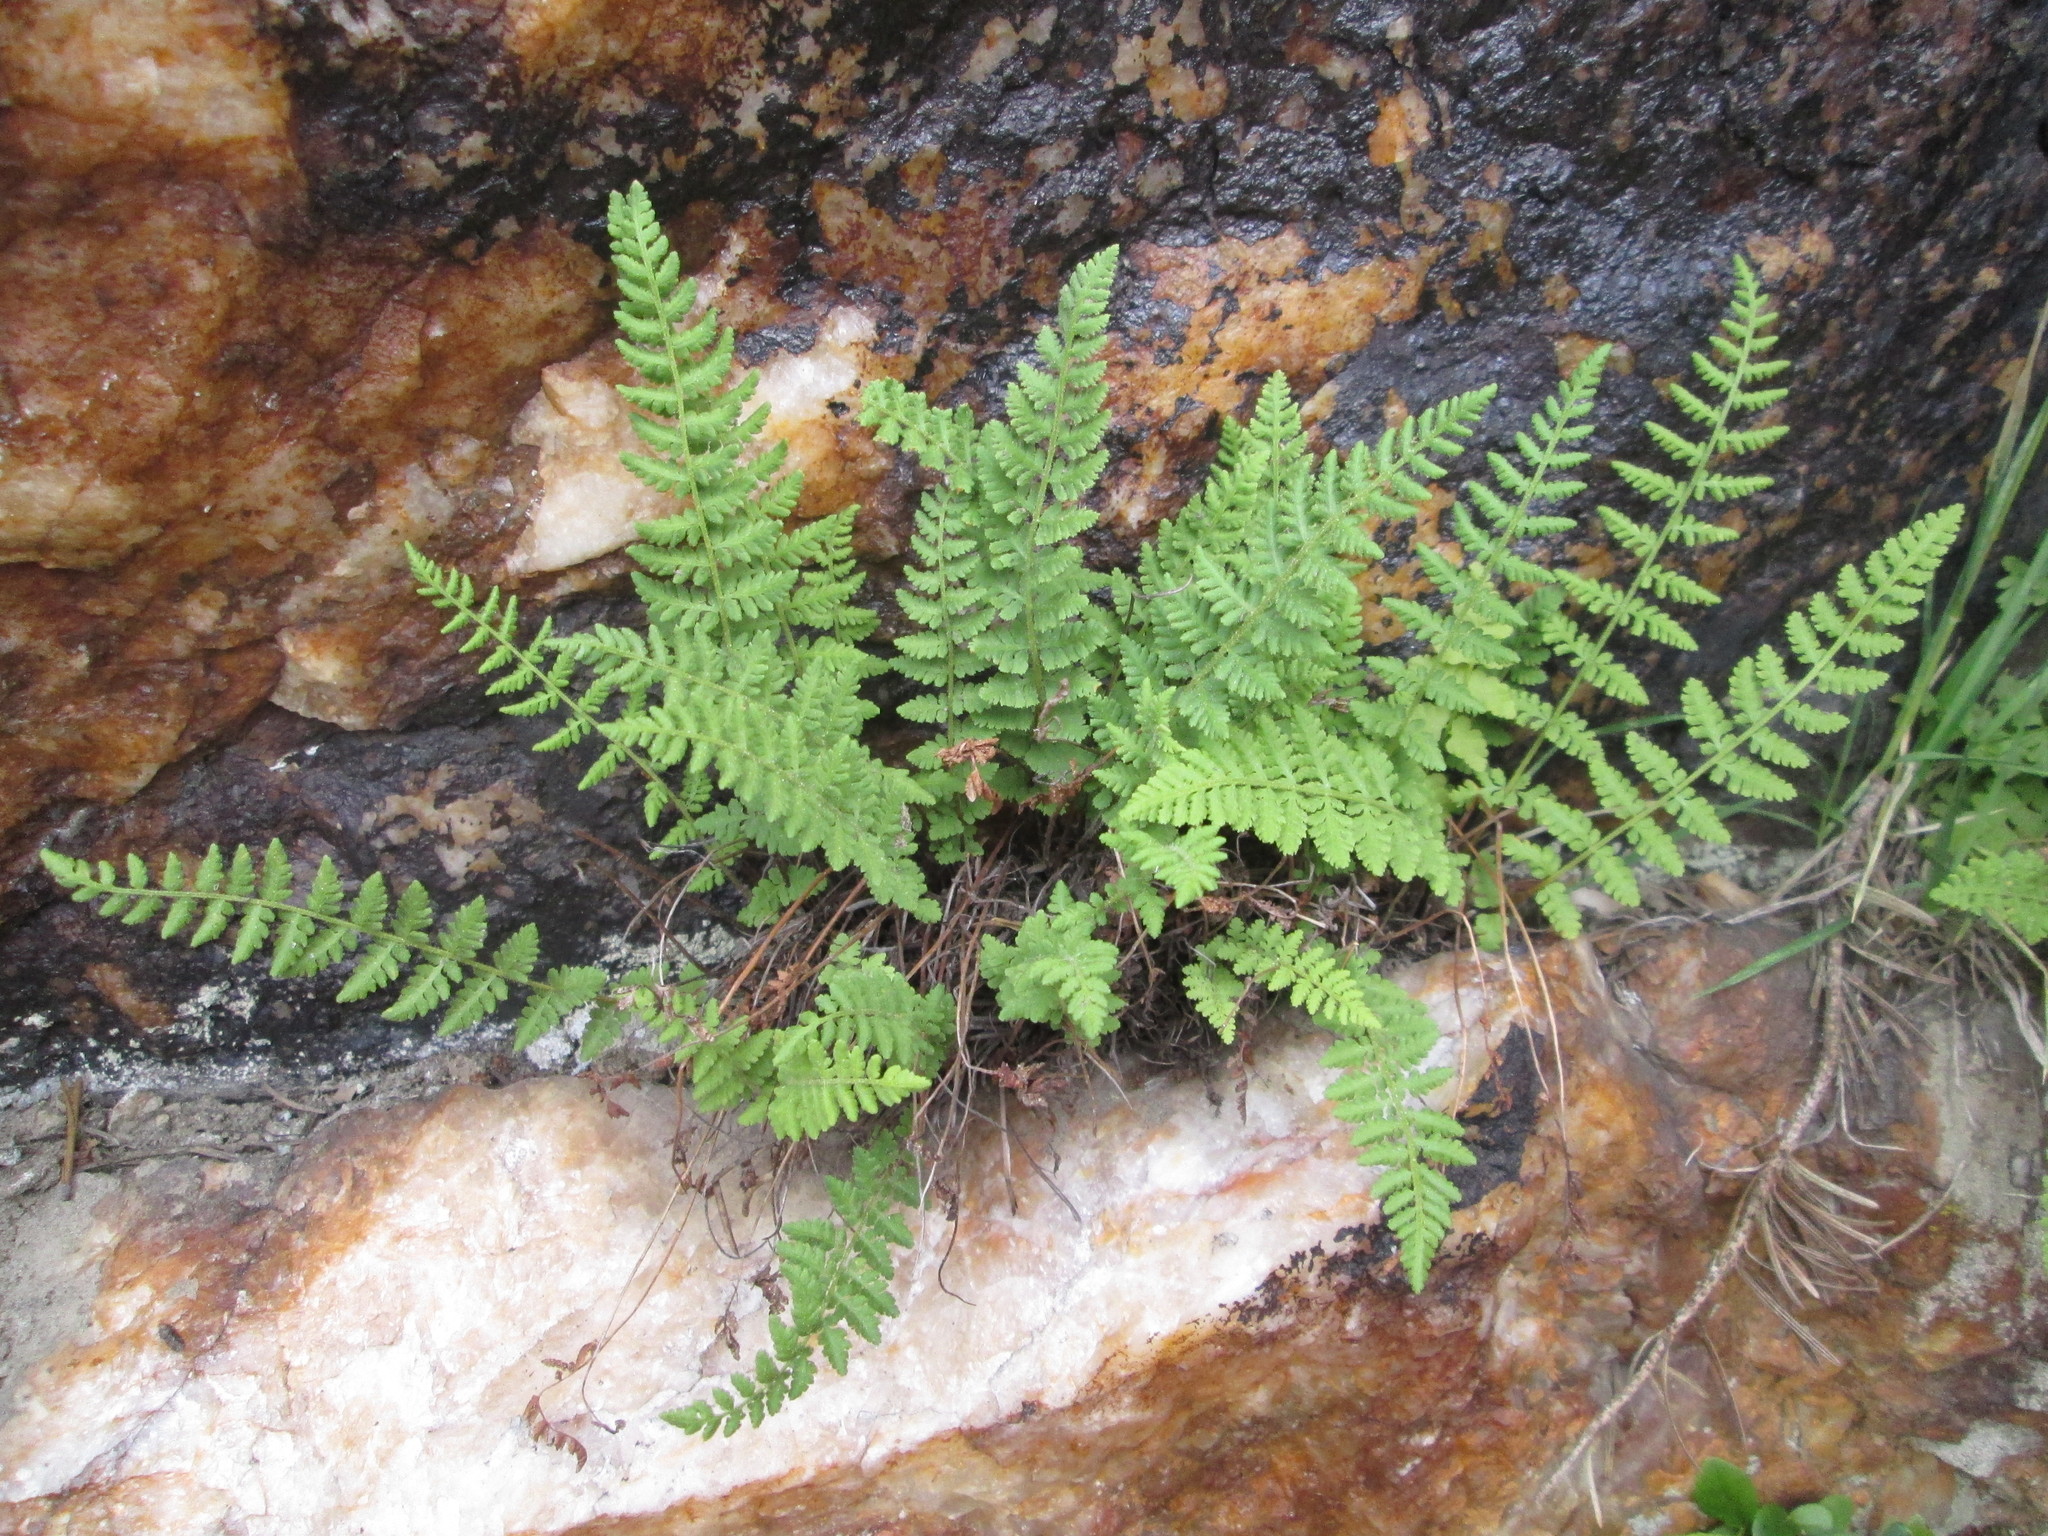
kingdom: Plantae
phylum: Tracheophyta
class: Polypodiopsida
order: Polypodiales
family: Woodsiaceae
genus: Physematium
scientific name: Physematium scopulinum
